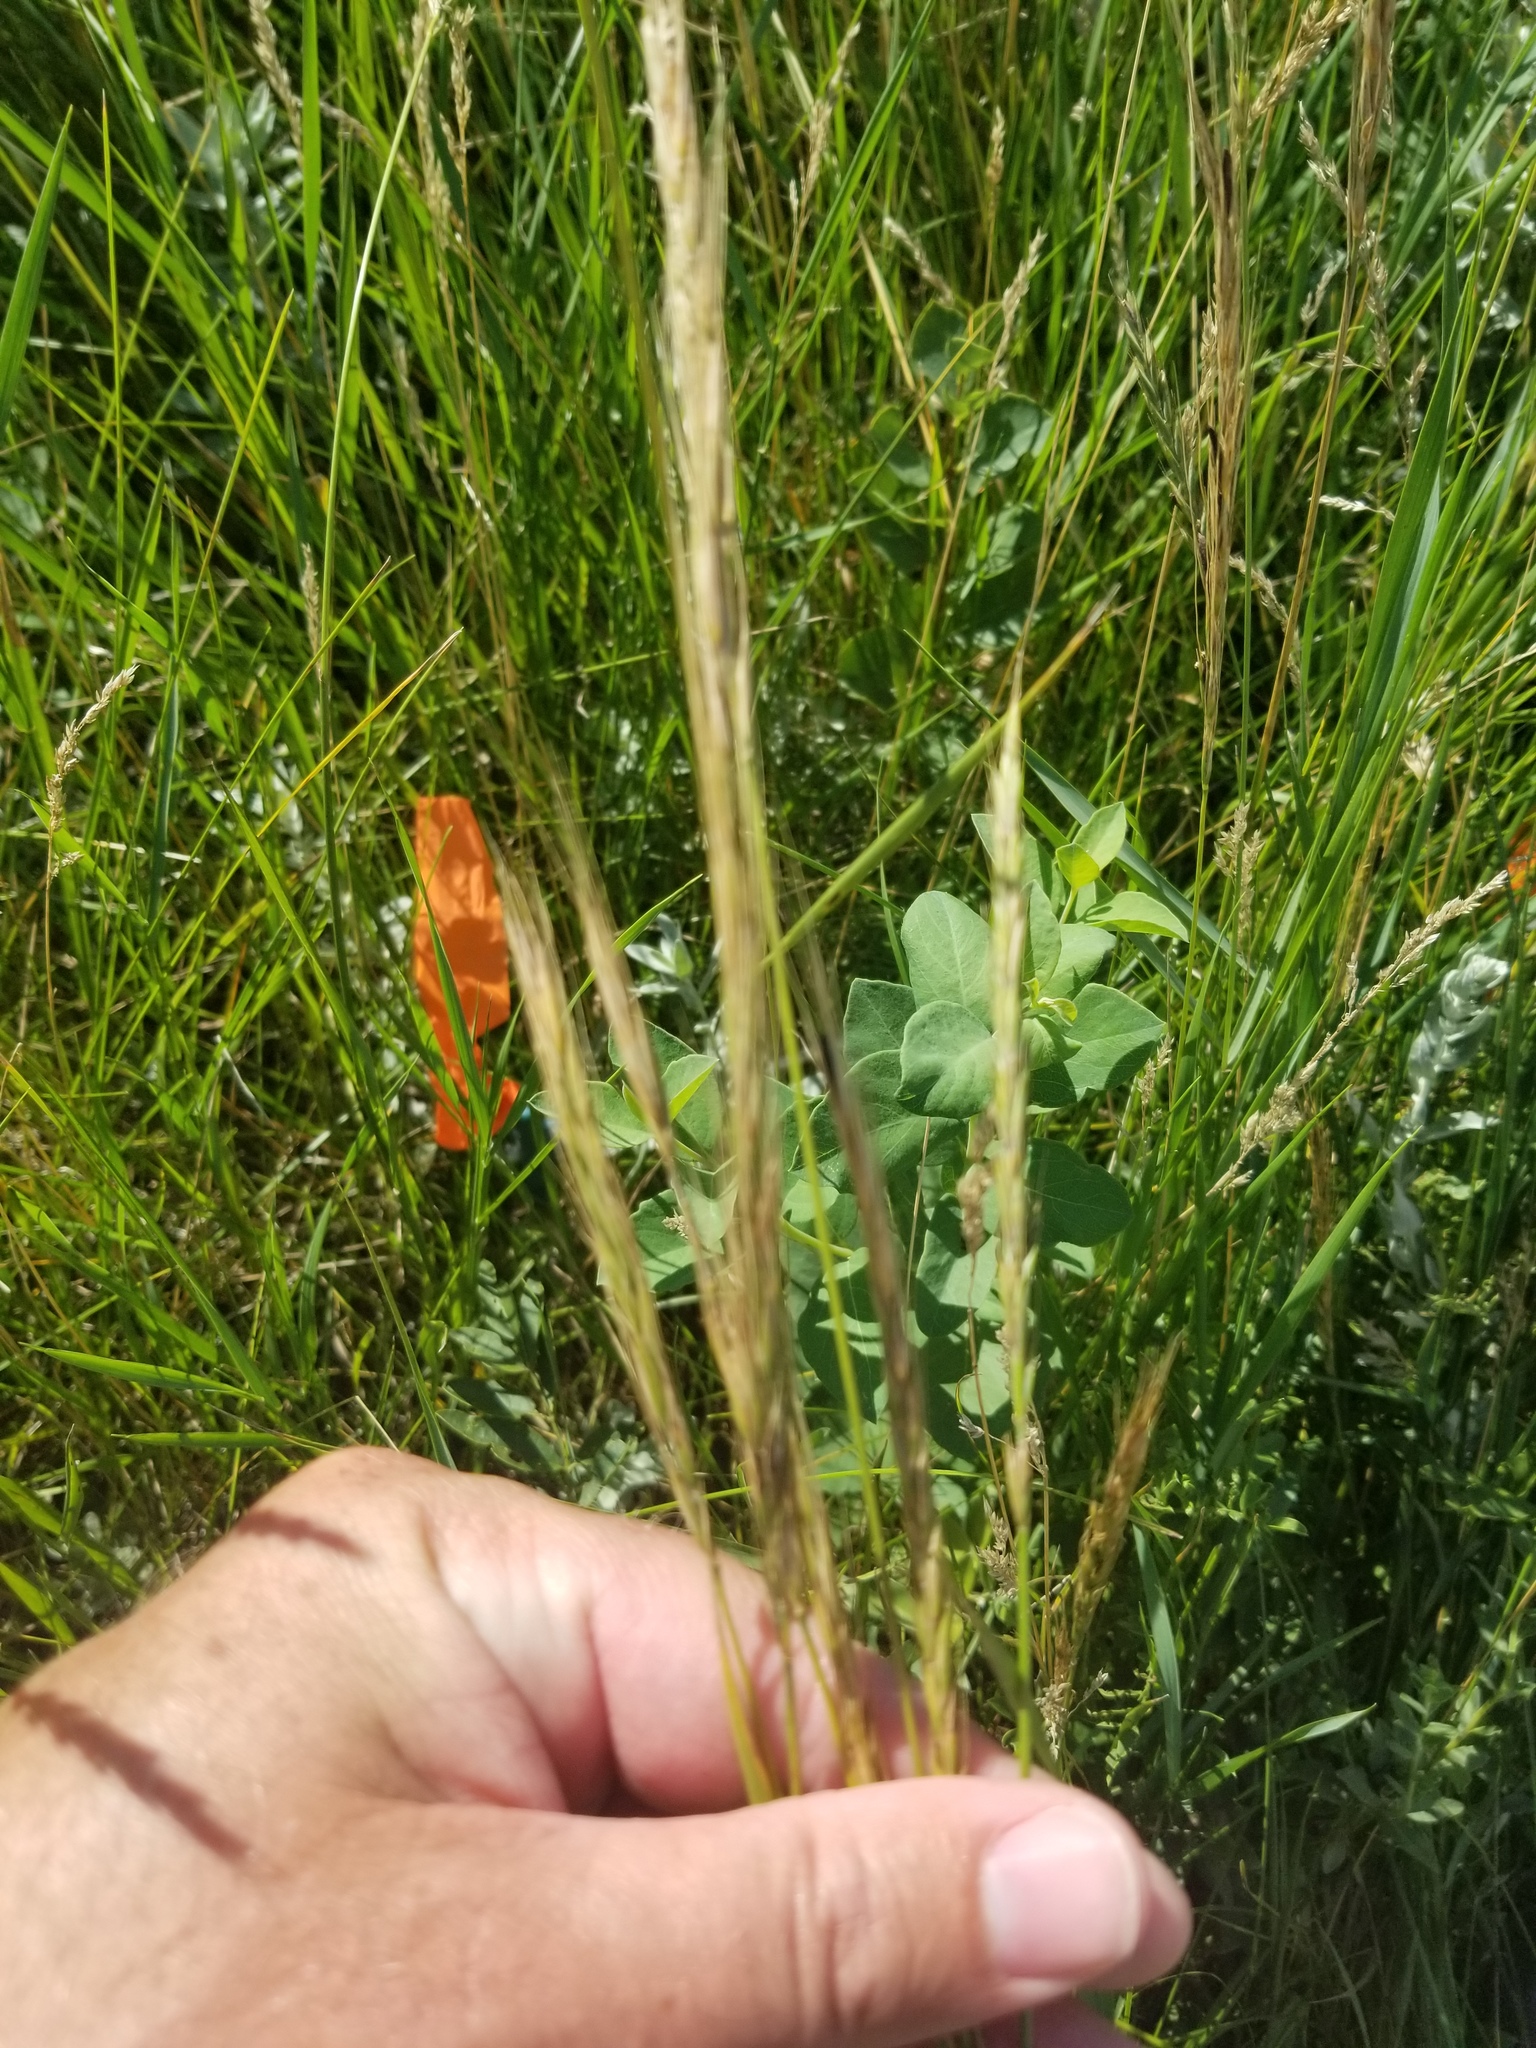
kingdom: Fungi
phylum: Ascomycota
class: Sordariomycetes
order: Hypocreales
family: Clavicipitaceae
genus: Claviceps
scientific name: Claviceps purpurea
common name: Rye ergot
